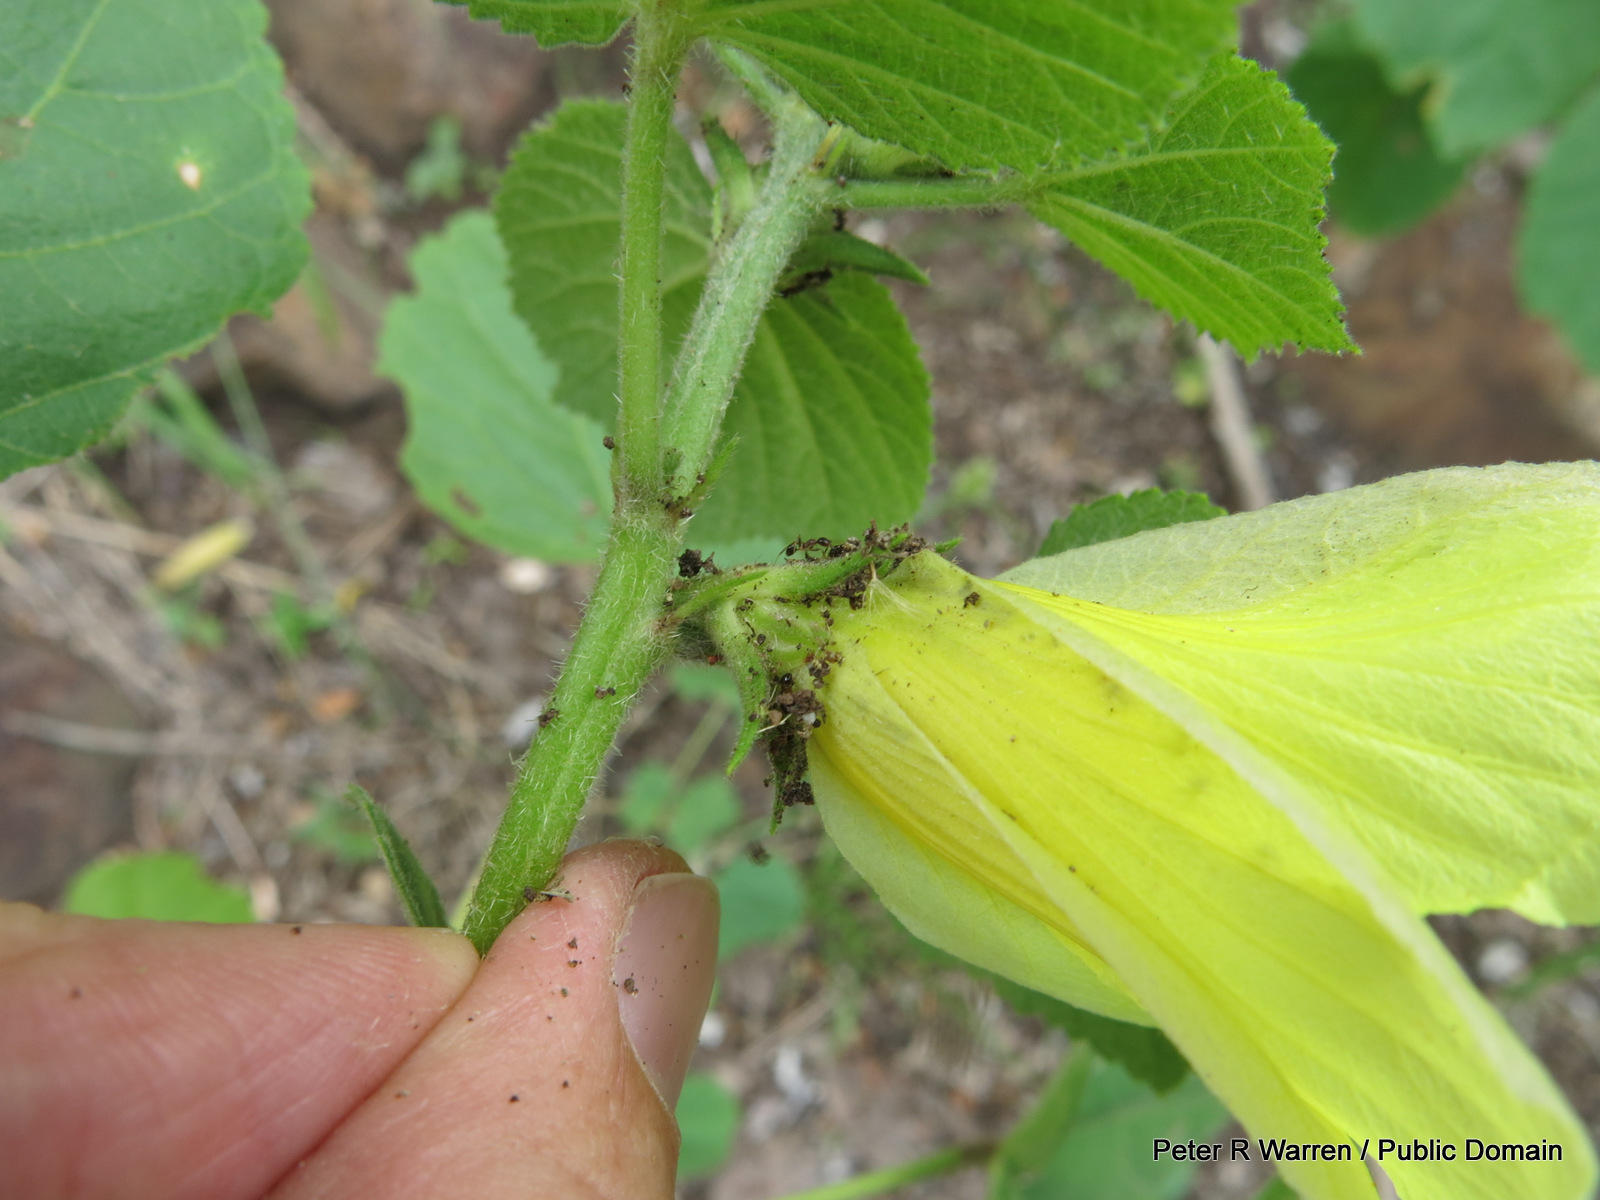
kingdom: Plantae
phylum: Tracheophyta
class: Magnoliopsida
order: Malvales
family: Malvaceae
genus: Hibiscus
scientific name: Hibiscus lunariifolius
